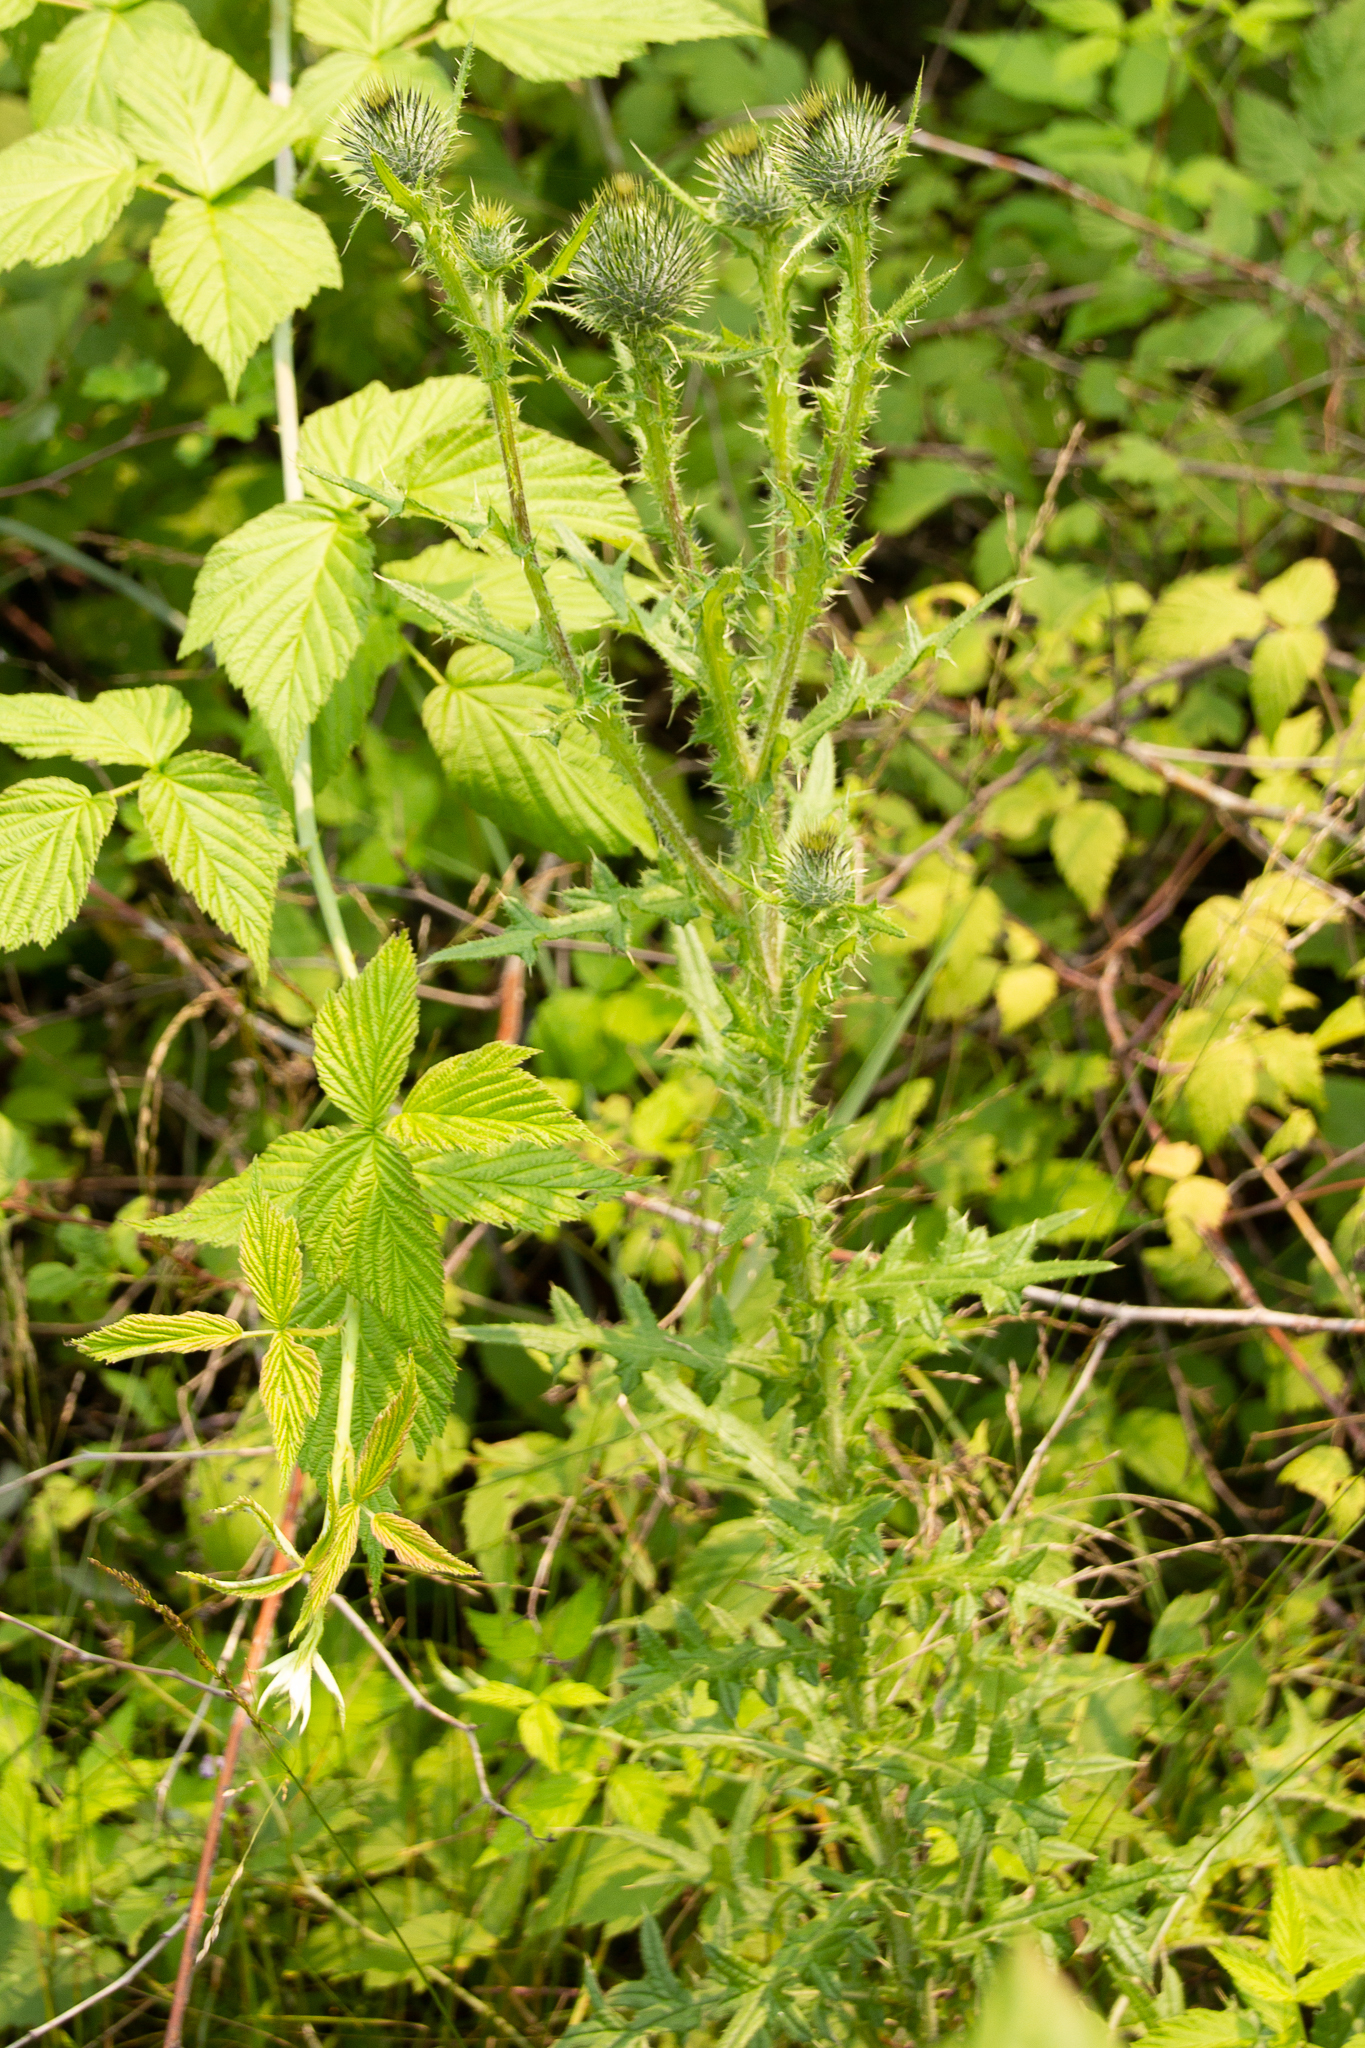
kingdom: Plantae
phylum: Tracheophyta
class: Magnoliopsida
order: Asterales
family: Asteraceae
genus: Cirsium
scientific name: Cirsium vulgare
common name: Bull thistle
